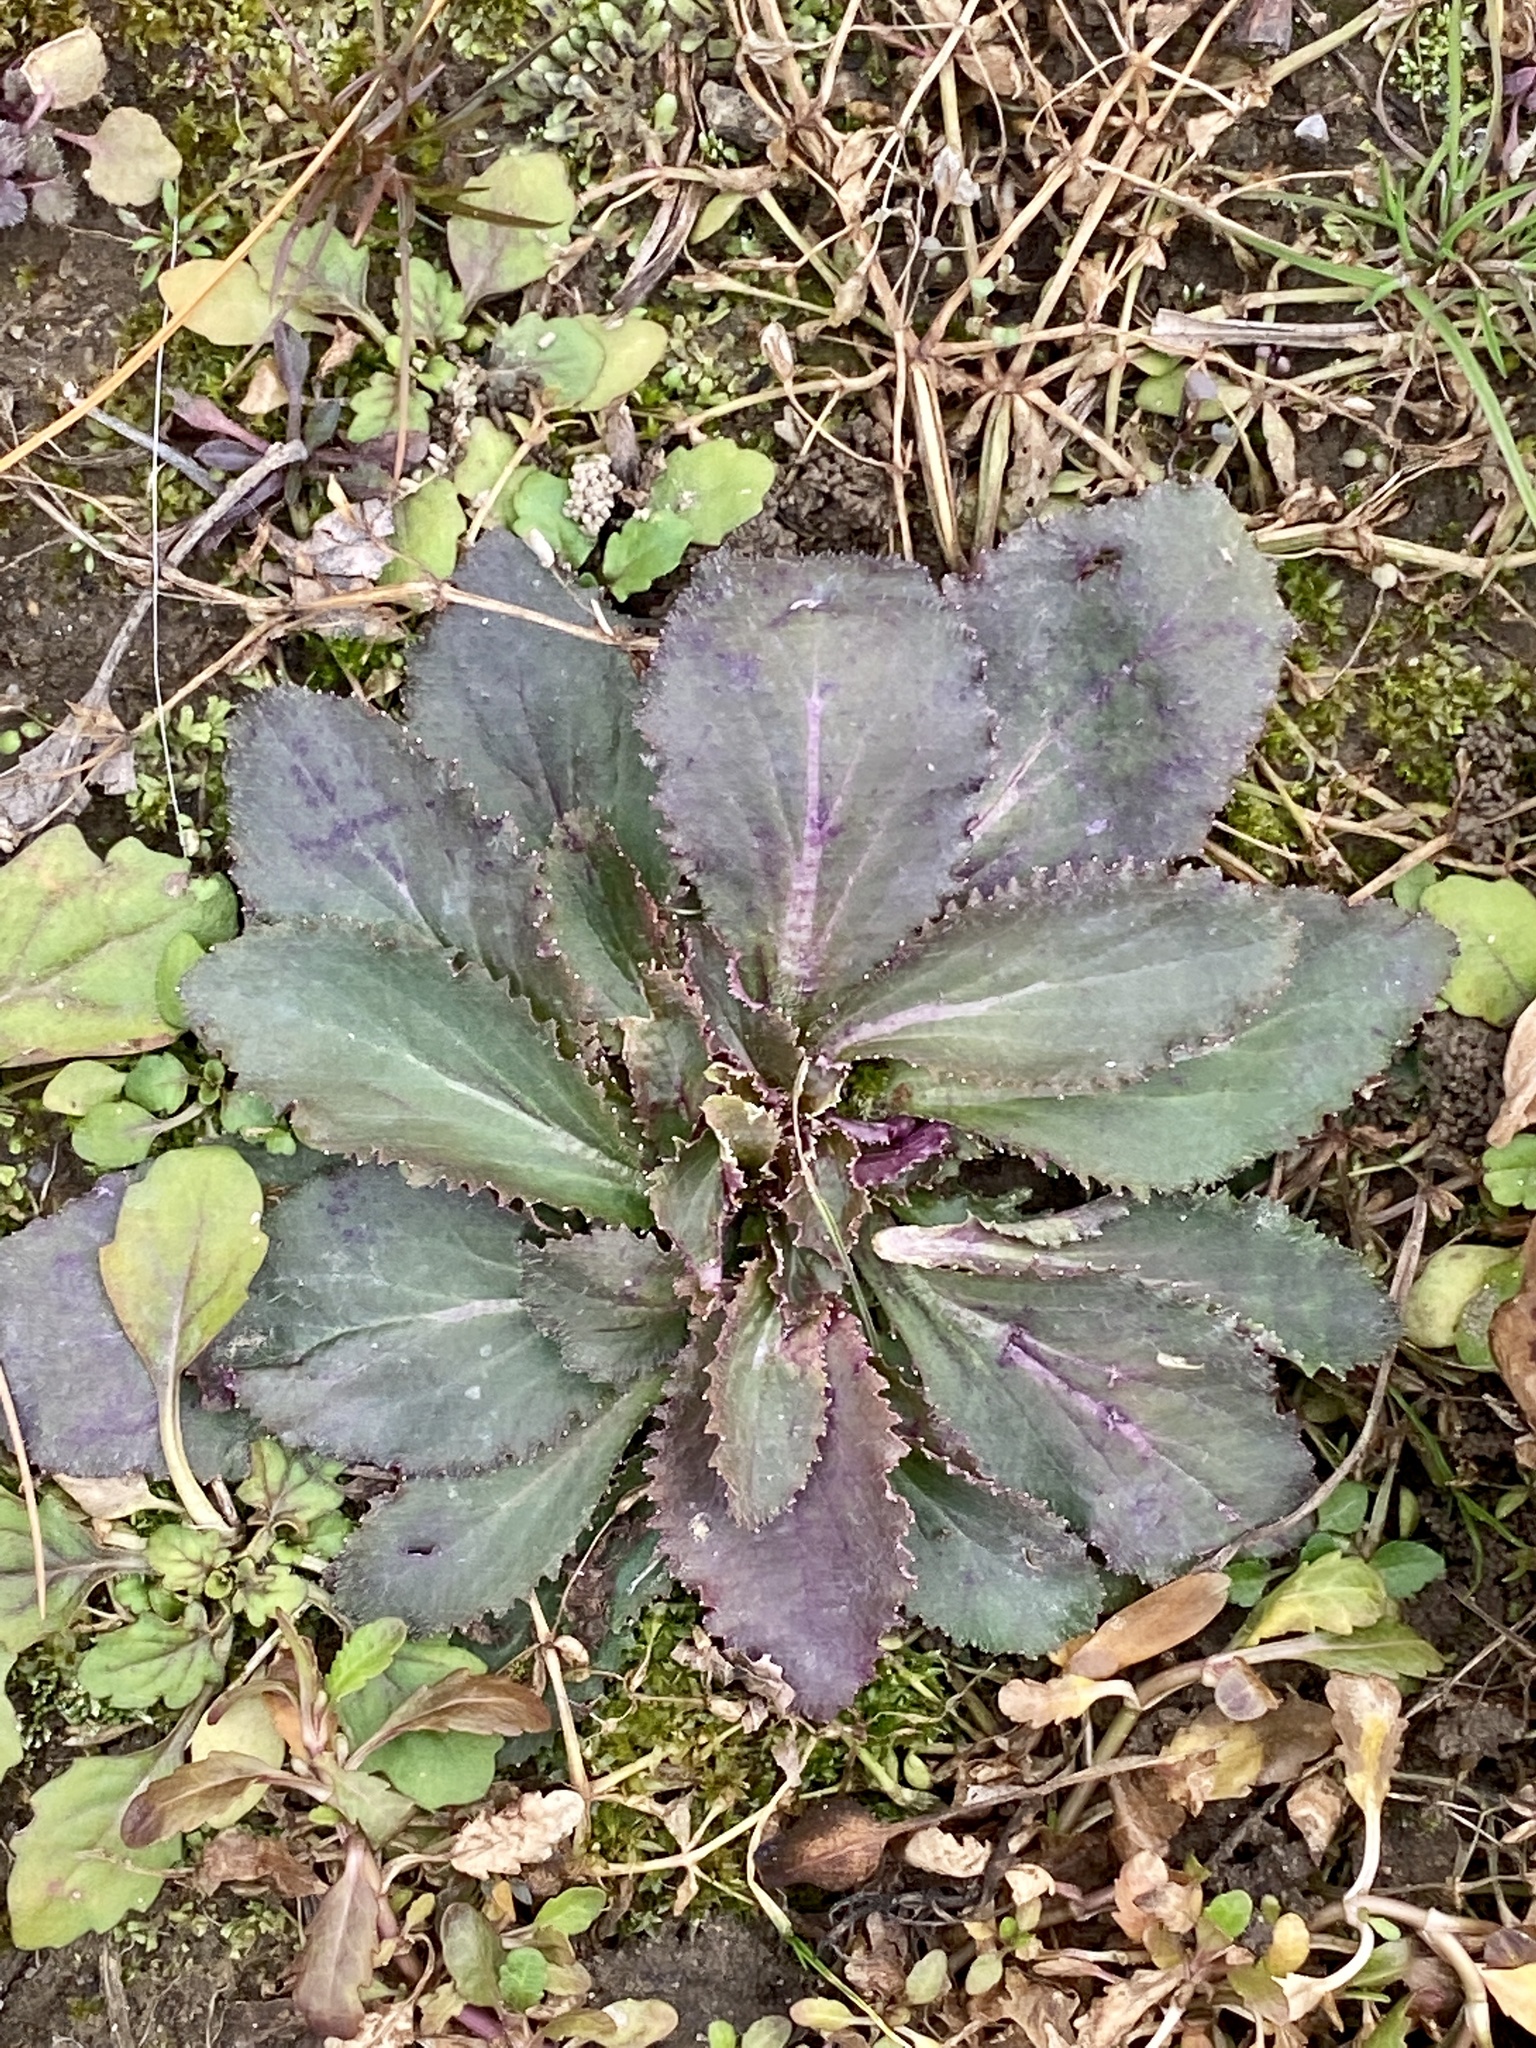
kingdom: Plantae
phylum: Tracheophyta
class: Magnoliopsida
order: Asterales
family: Campanulaceae
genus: Lobelia
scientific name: Lobelia inflata
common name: Indian tobacco
